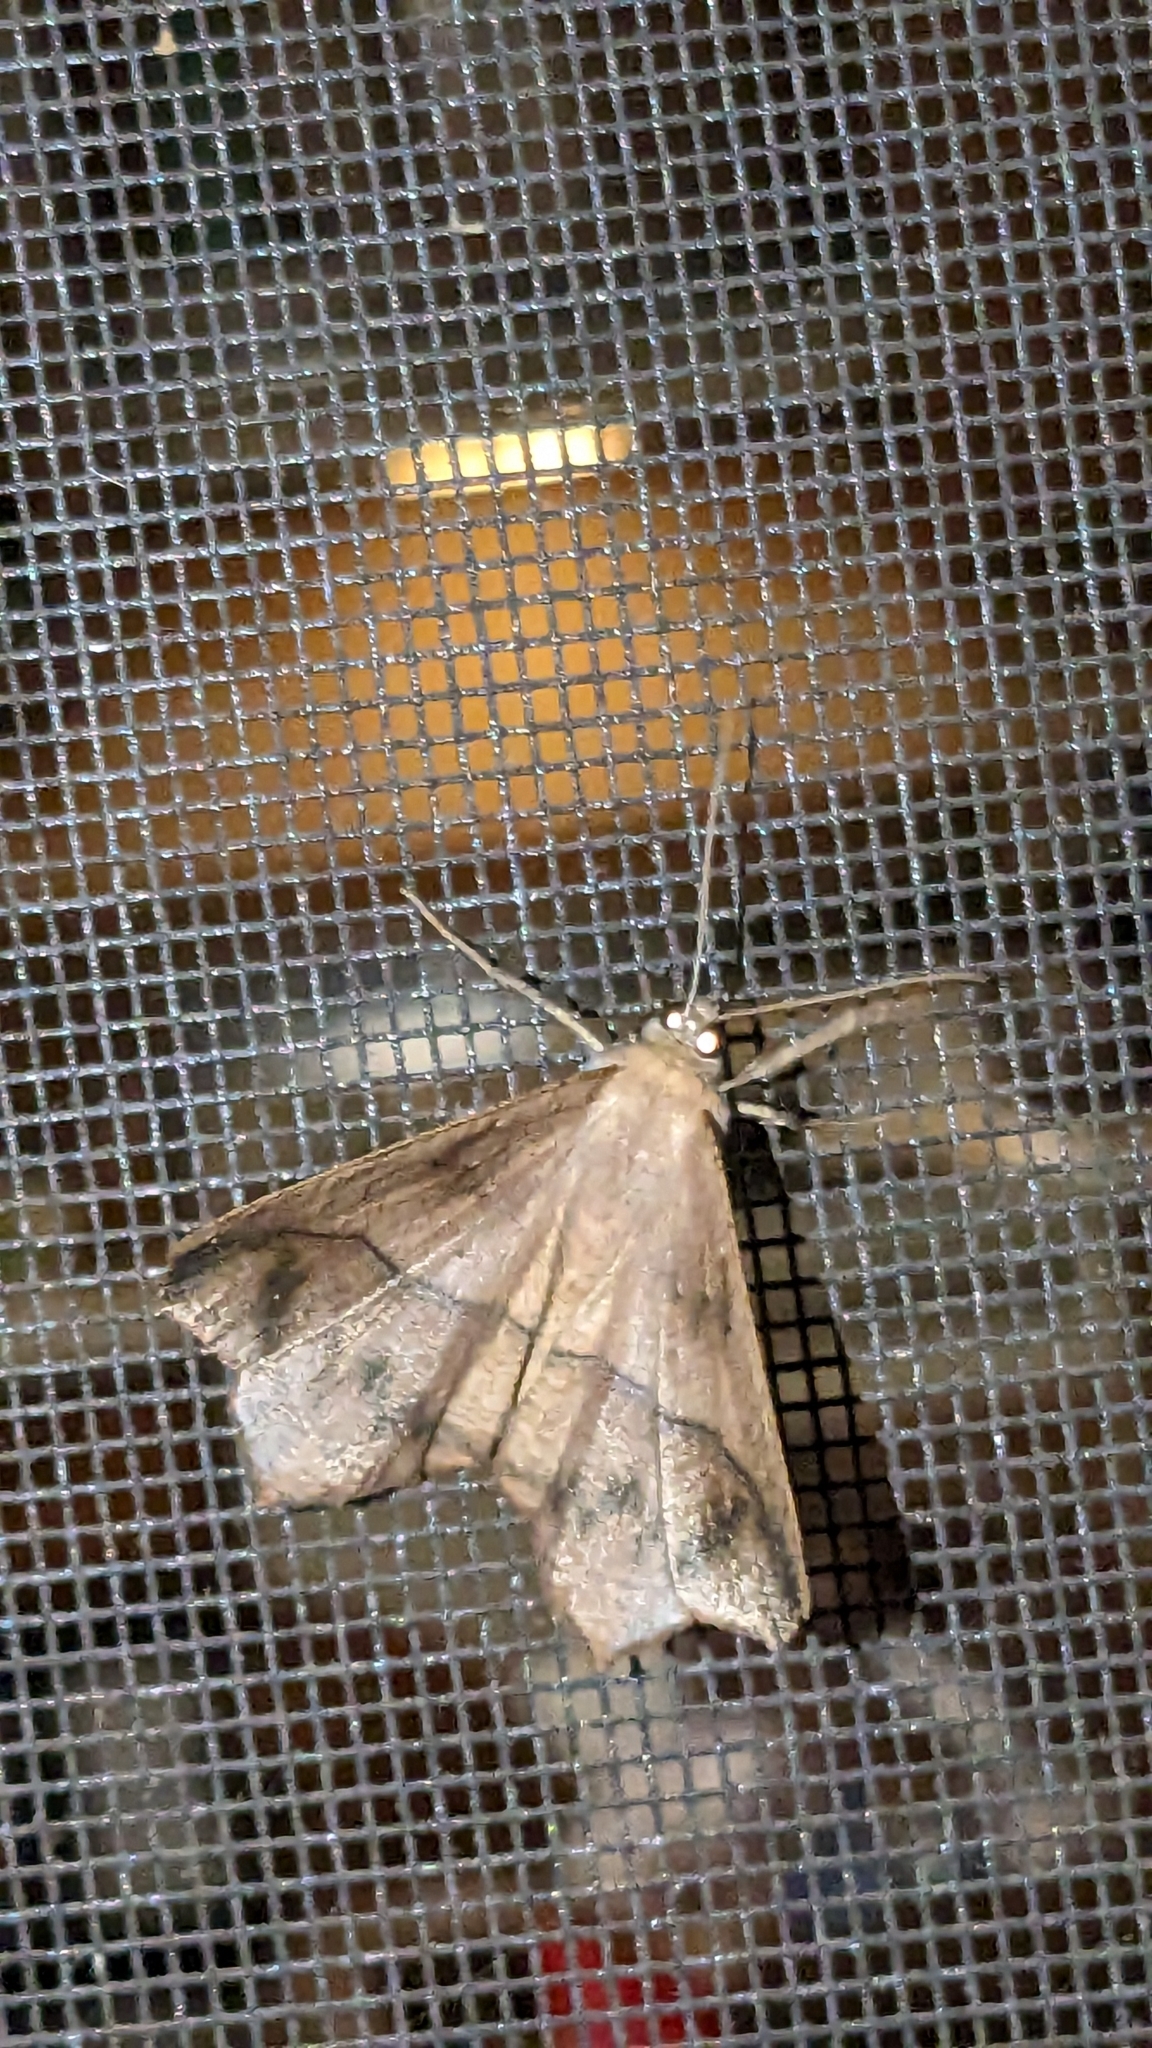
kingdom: Animalia
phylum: Arthropoda
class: Insecta
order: Lepidoptera
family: Geometridae
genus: Prochoerodes
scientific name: Prochoerodes lineola
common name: Large maple spanworm
